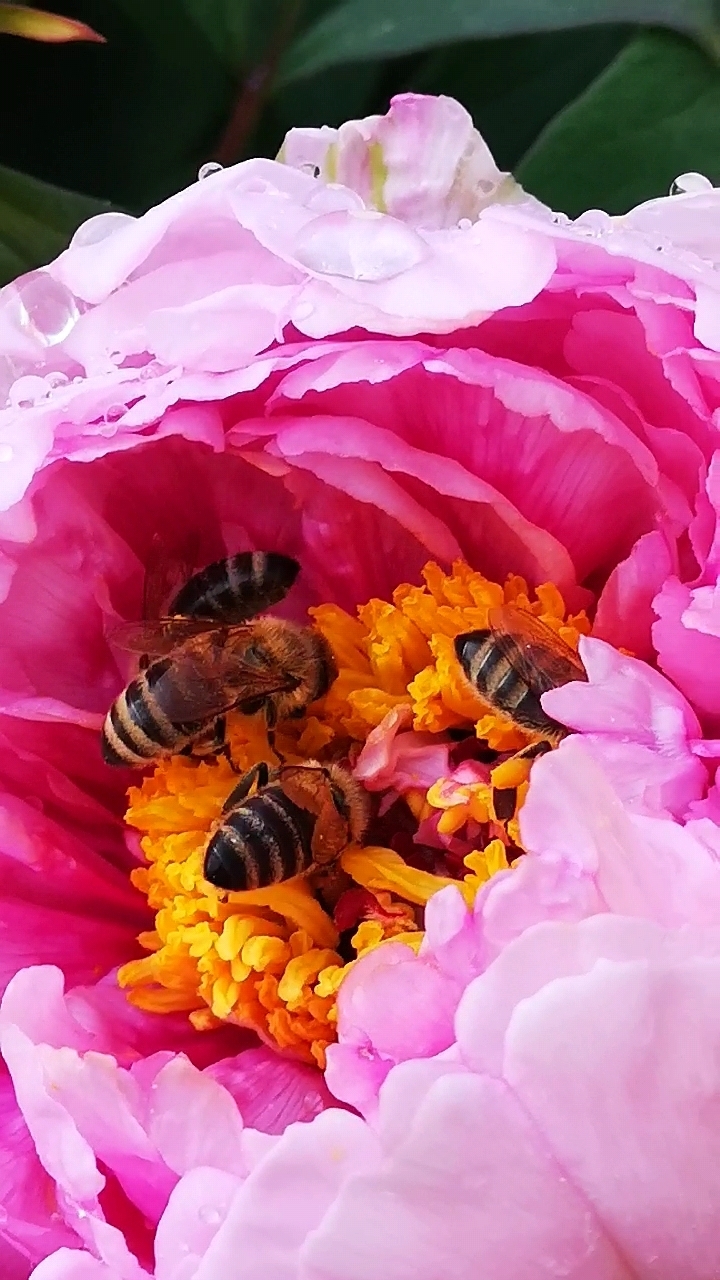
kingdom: Animalia
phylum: Arthropoda
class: Insecta
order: Hymenoptera
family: Apidae
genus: Apis
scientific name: Apis mellifera
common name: Honey bee
